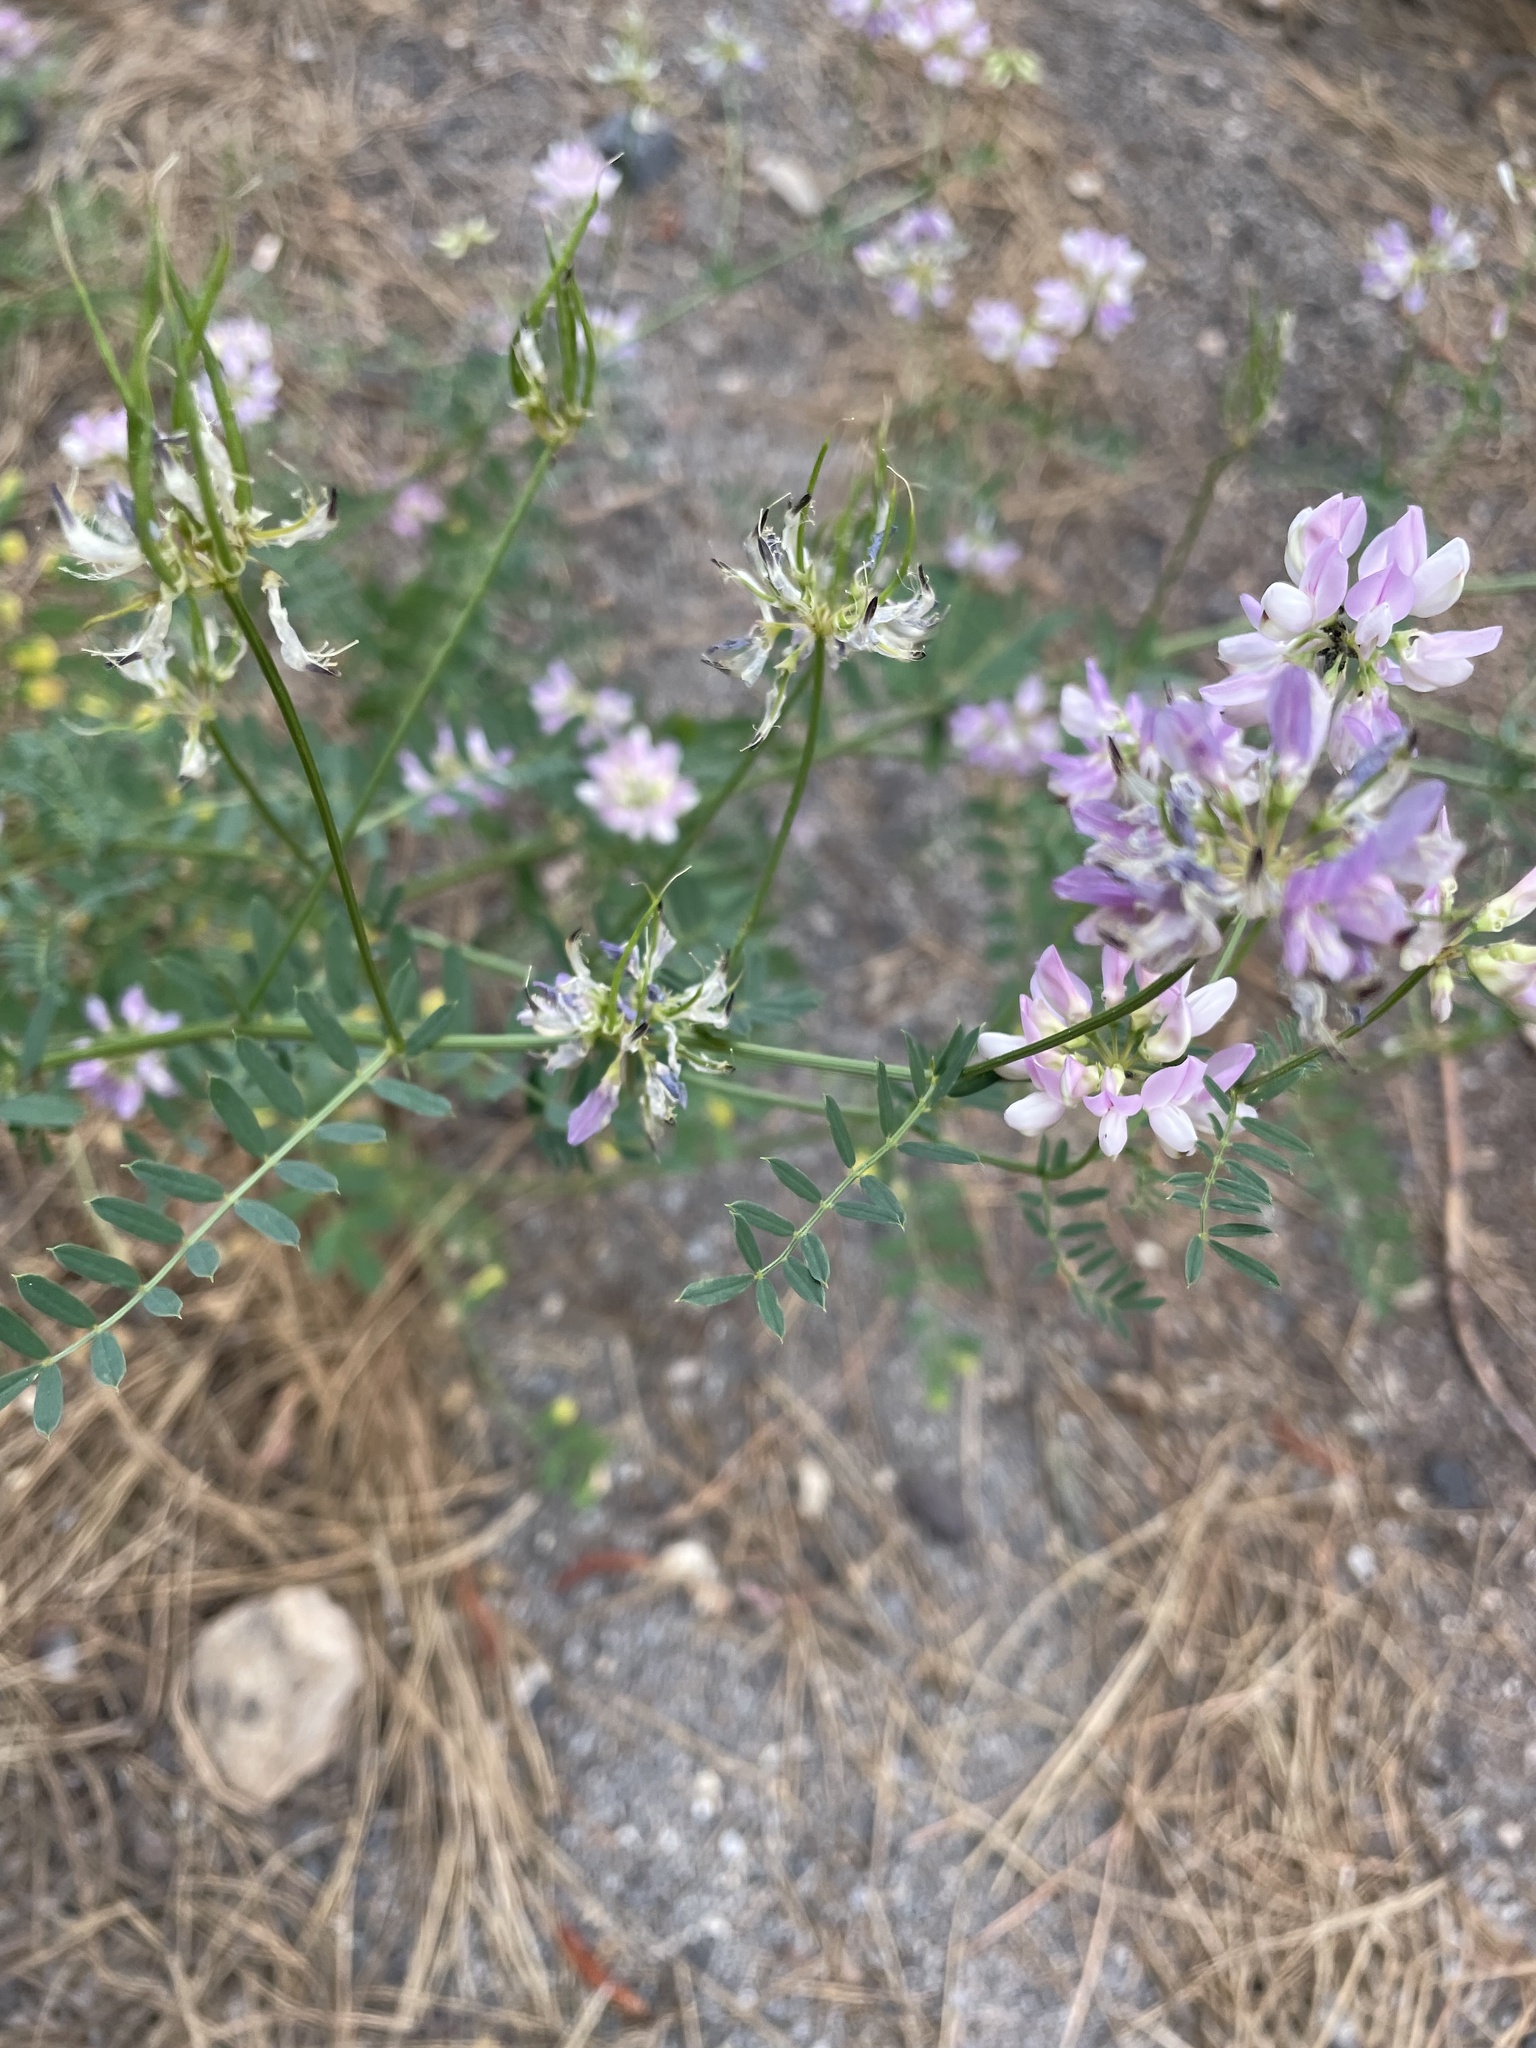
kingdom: Plantae
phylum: Tracheophyta
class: Magnoliopsida
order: Fabales
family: Fabaceae
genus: Coronilla
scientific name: Coronilla varia
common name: Crownvetch
